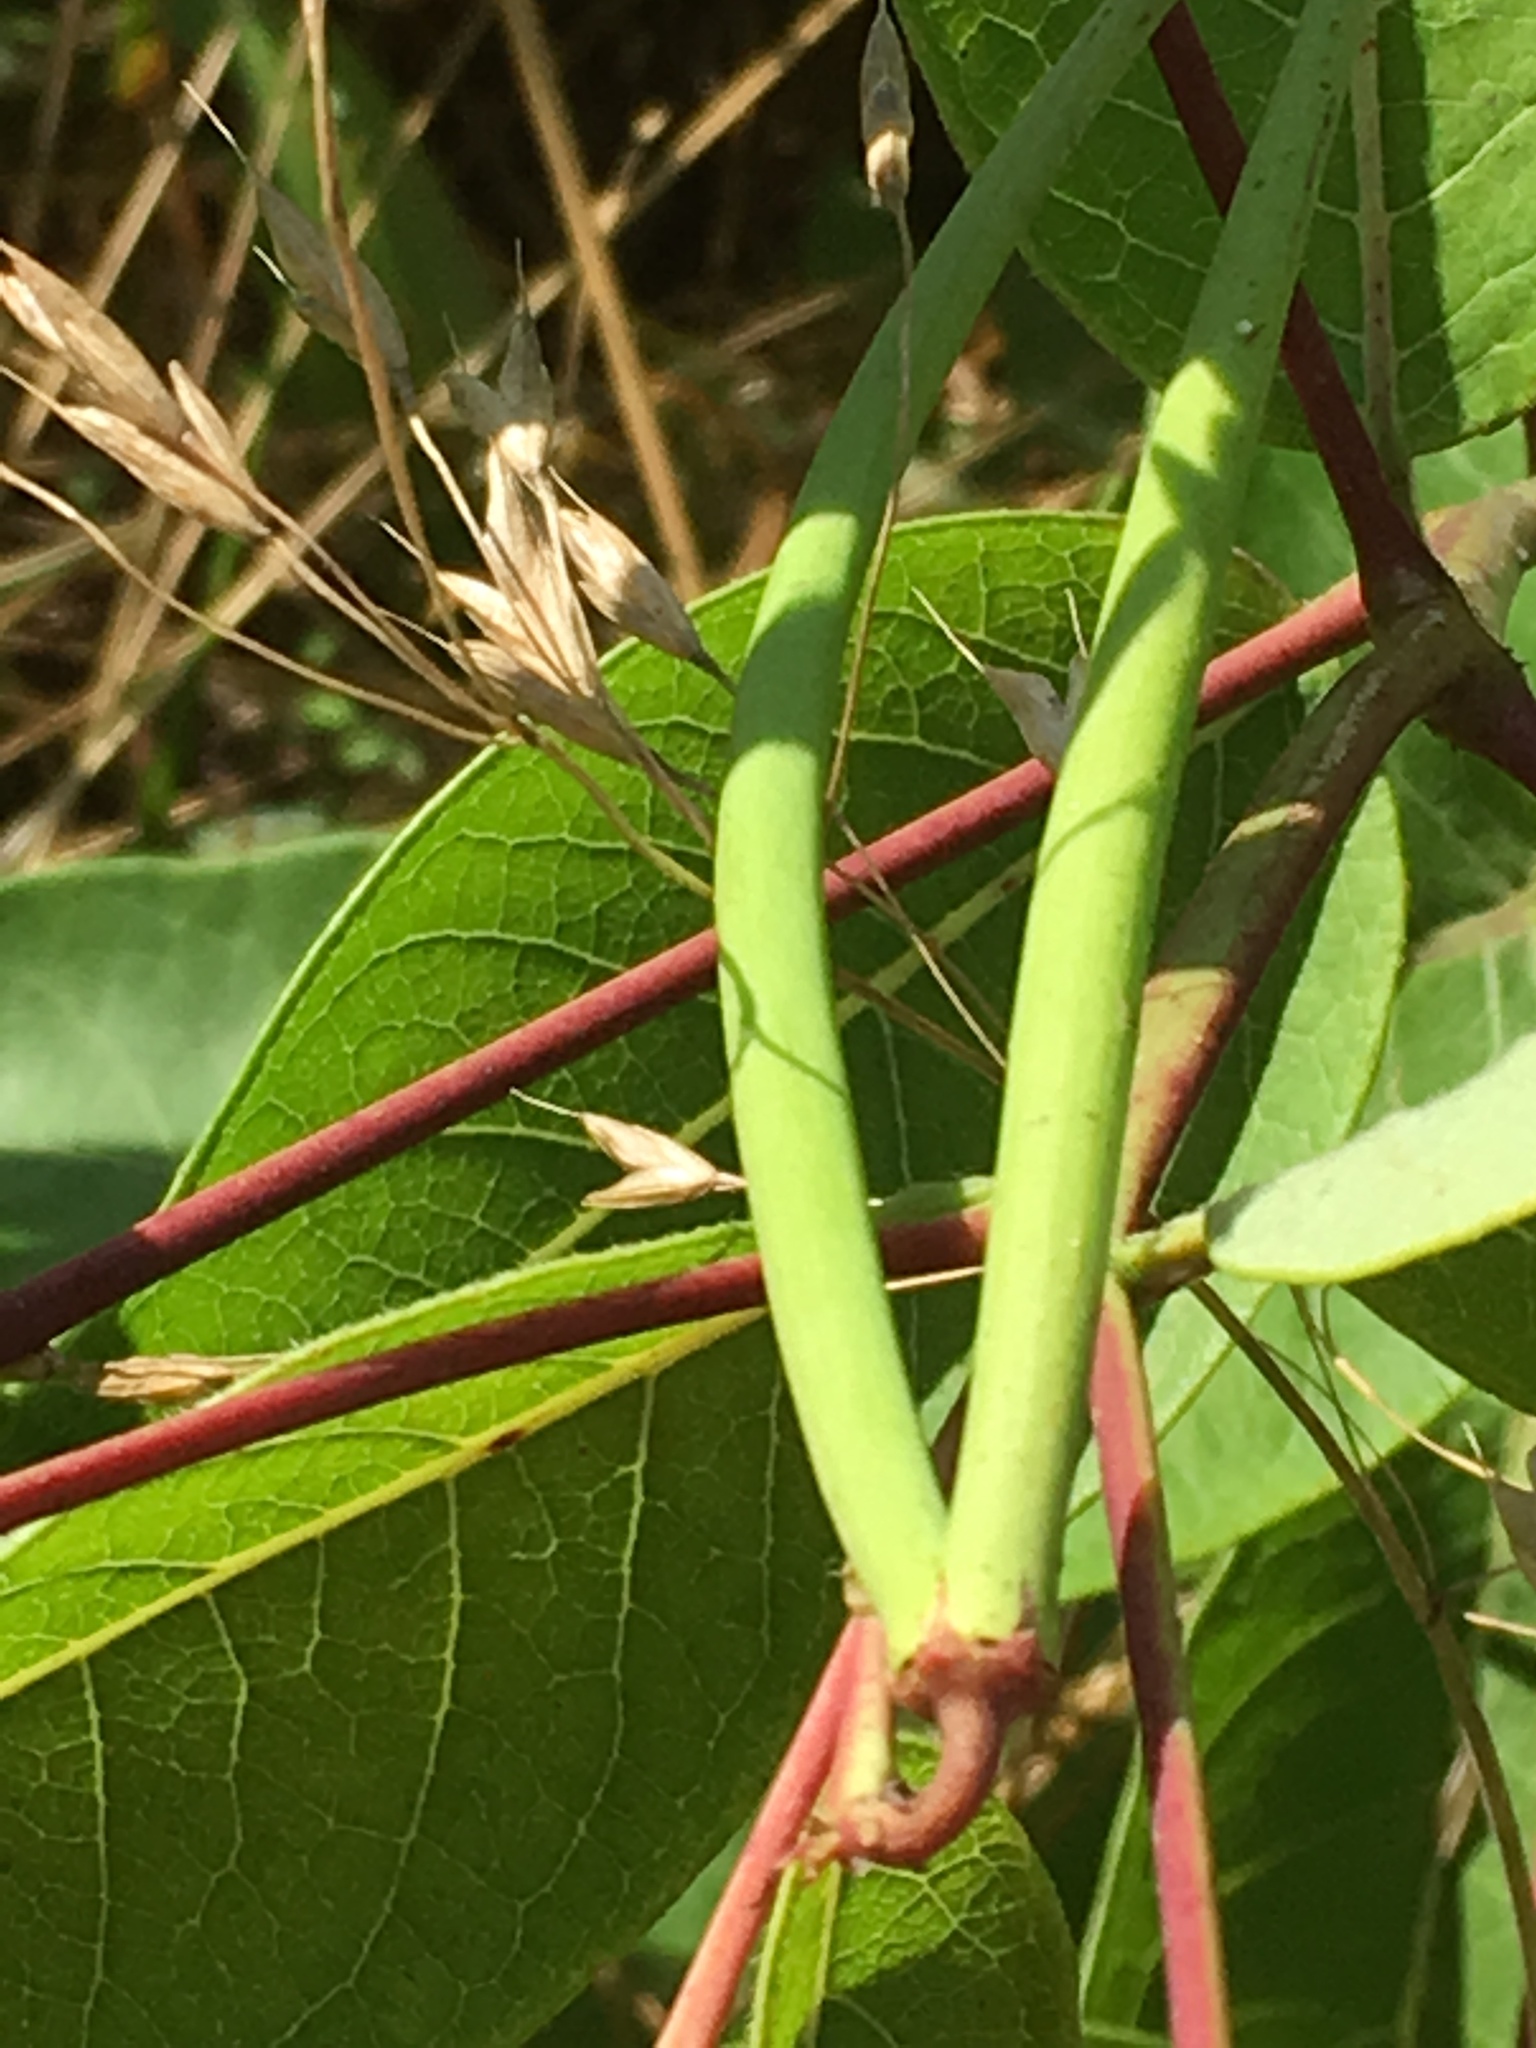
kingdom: Plantae
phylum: Tracheophyta
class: Magnoliopsida
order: Gentianales
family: Apocynaceae
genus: Apocynum
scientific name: Apocynum cannabinum
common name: Hemp dogbane
